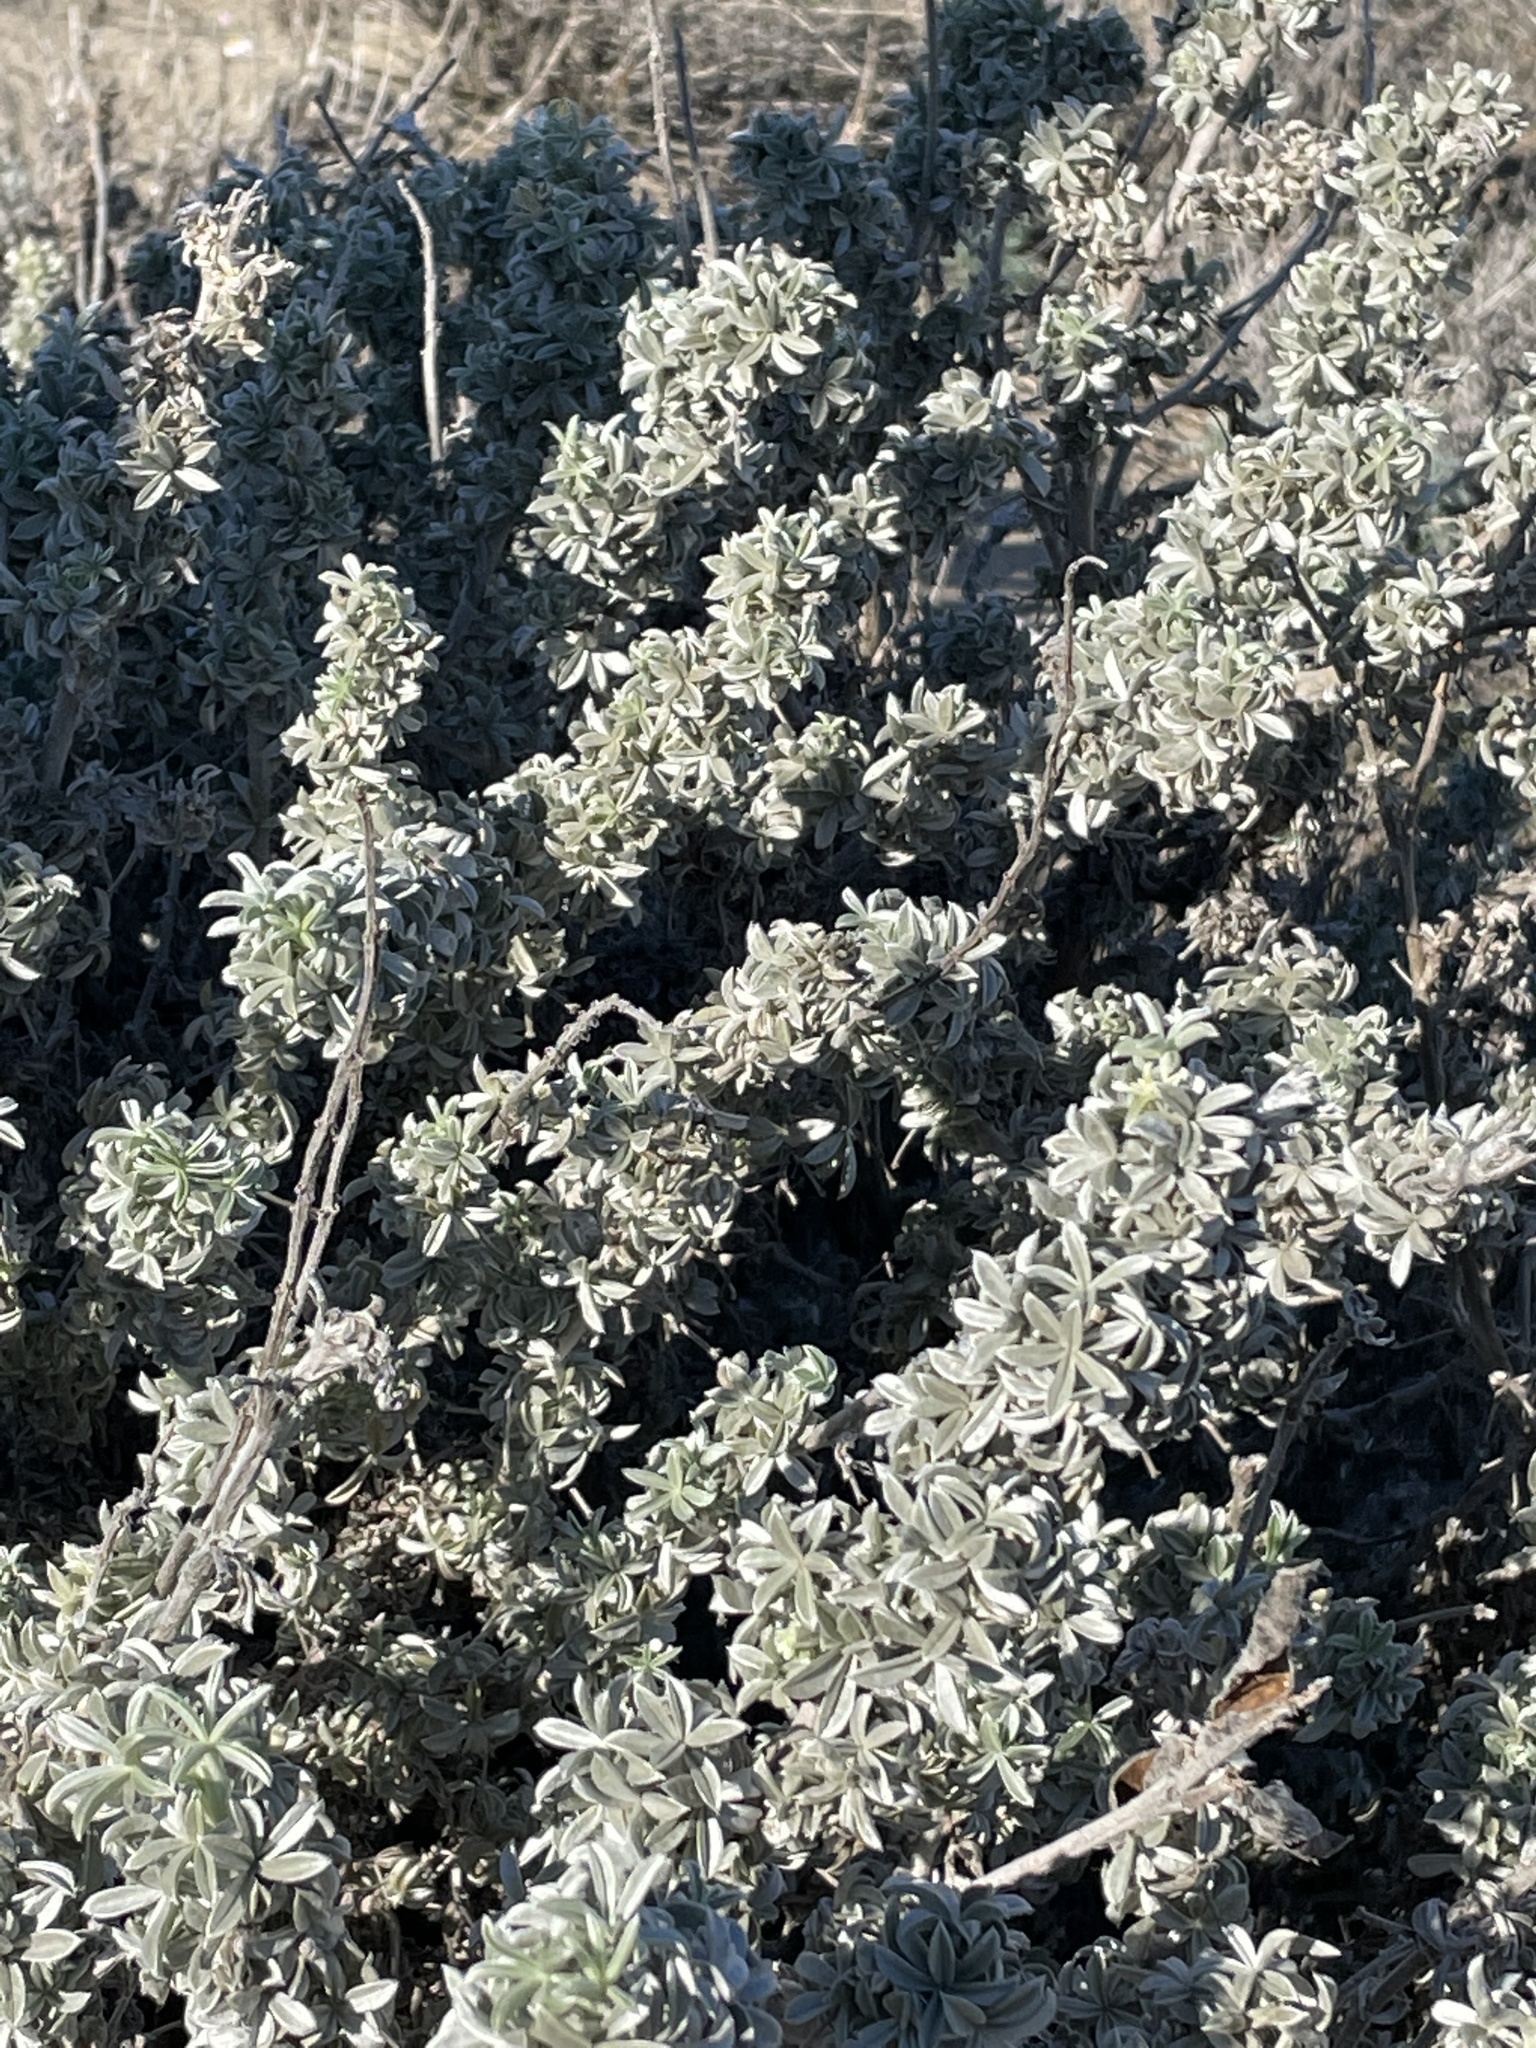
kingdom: Plantae
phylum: Tracheophyta
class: Magnoliopsida
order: Fabales
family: Fabaceae
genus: Lupinus
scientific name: Lupinus chamissonis
